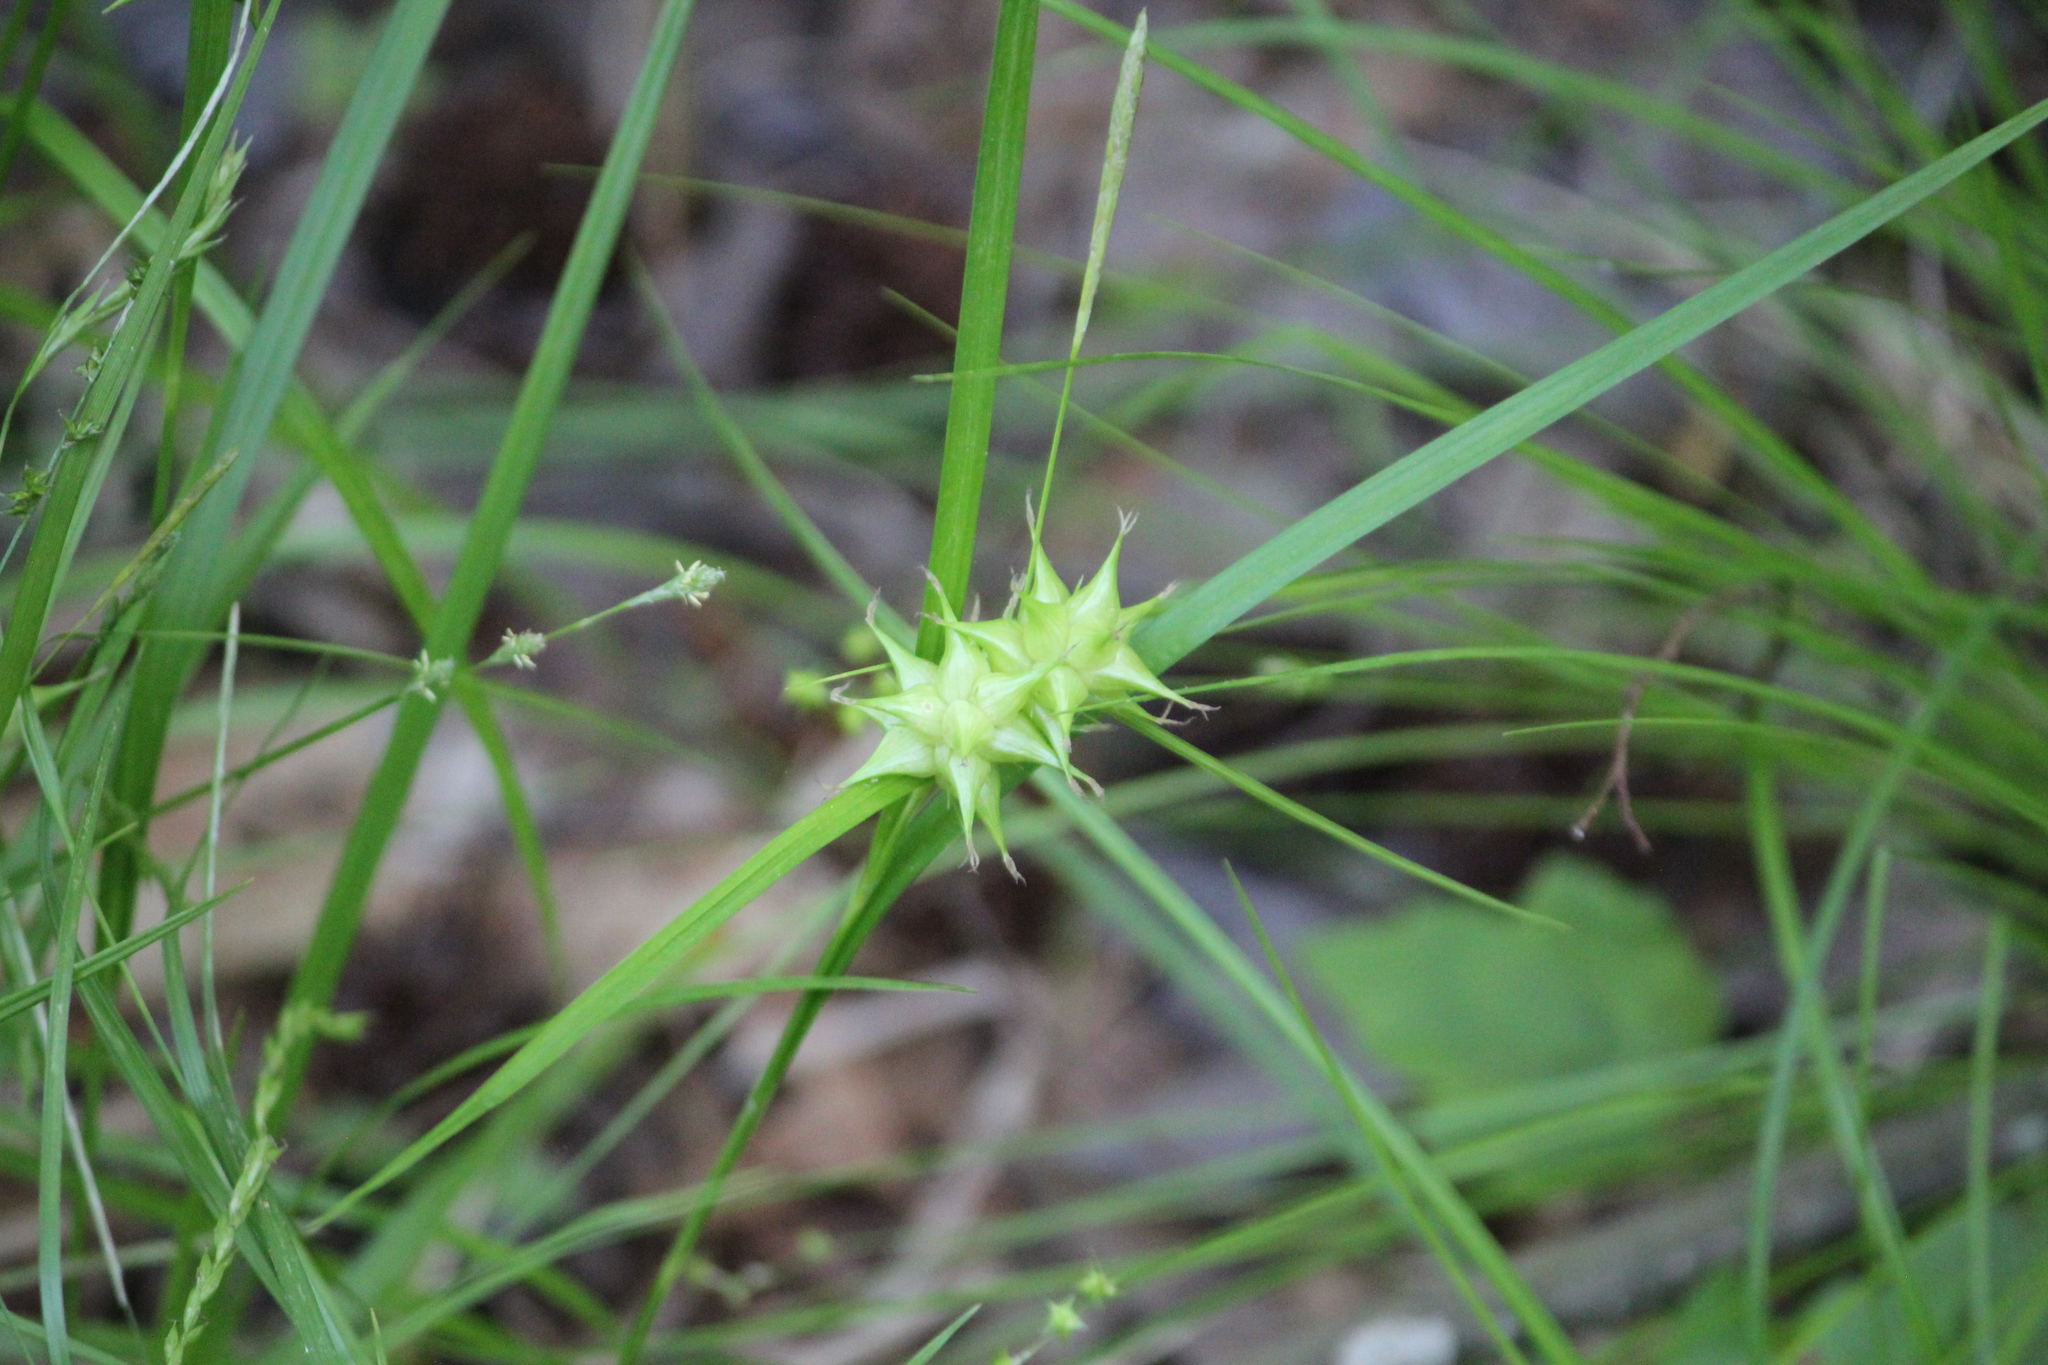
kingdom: Plantae
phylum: Tracheophyta
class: Liliopsida
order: Poales
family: Cyperaceae
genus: Carex
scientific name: Carex grayi
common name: Asa gray's sedge
